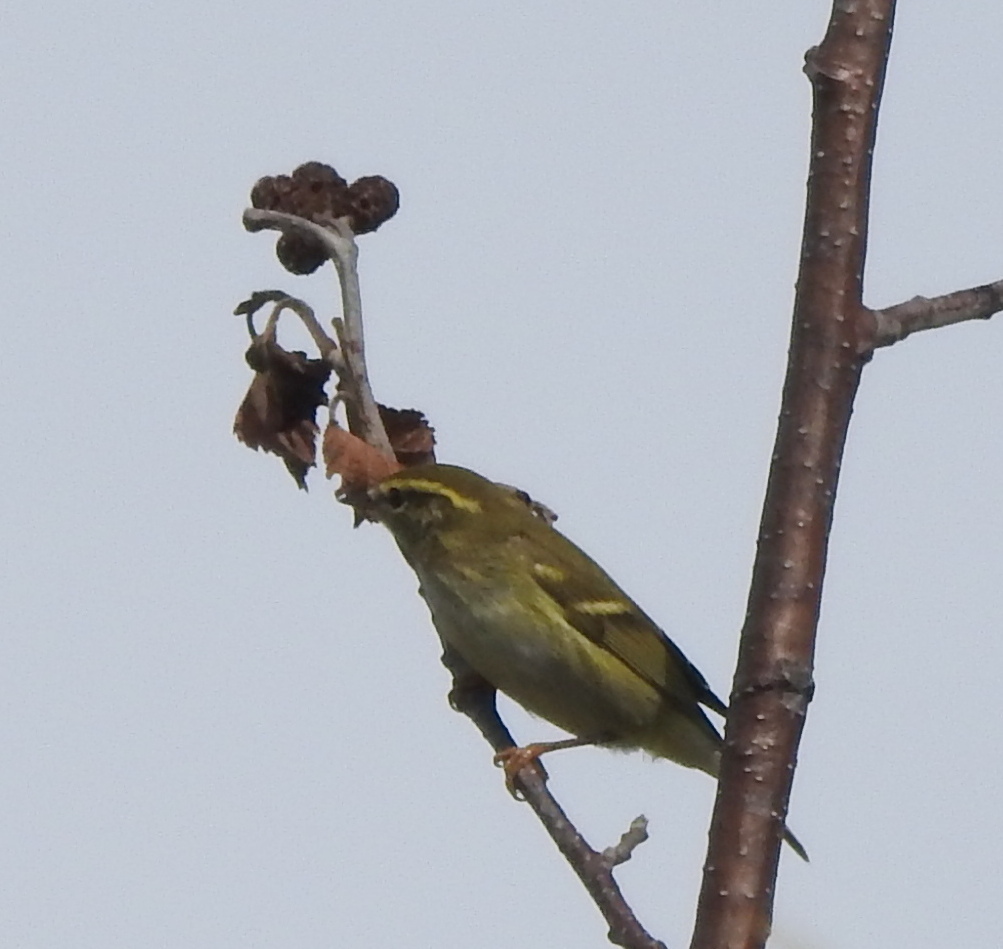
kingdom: Animalia
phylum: Chordata
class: Aves
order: Passeriformes
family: Phylloscopidae
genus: Phylloscopus
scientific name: Phylloscopus proregulus
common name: Pallas's leaf warbler
